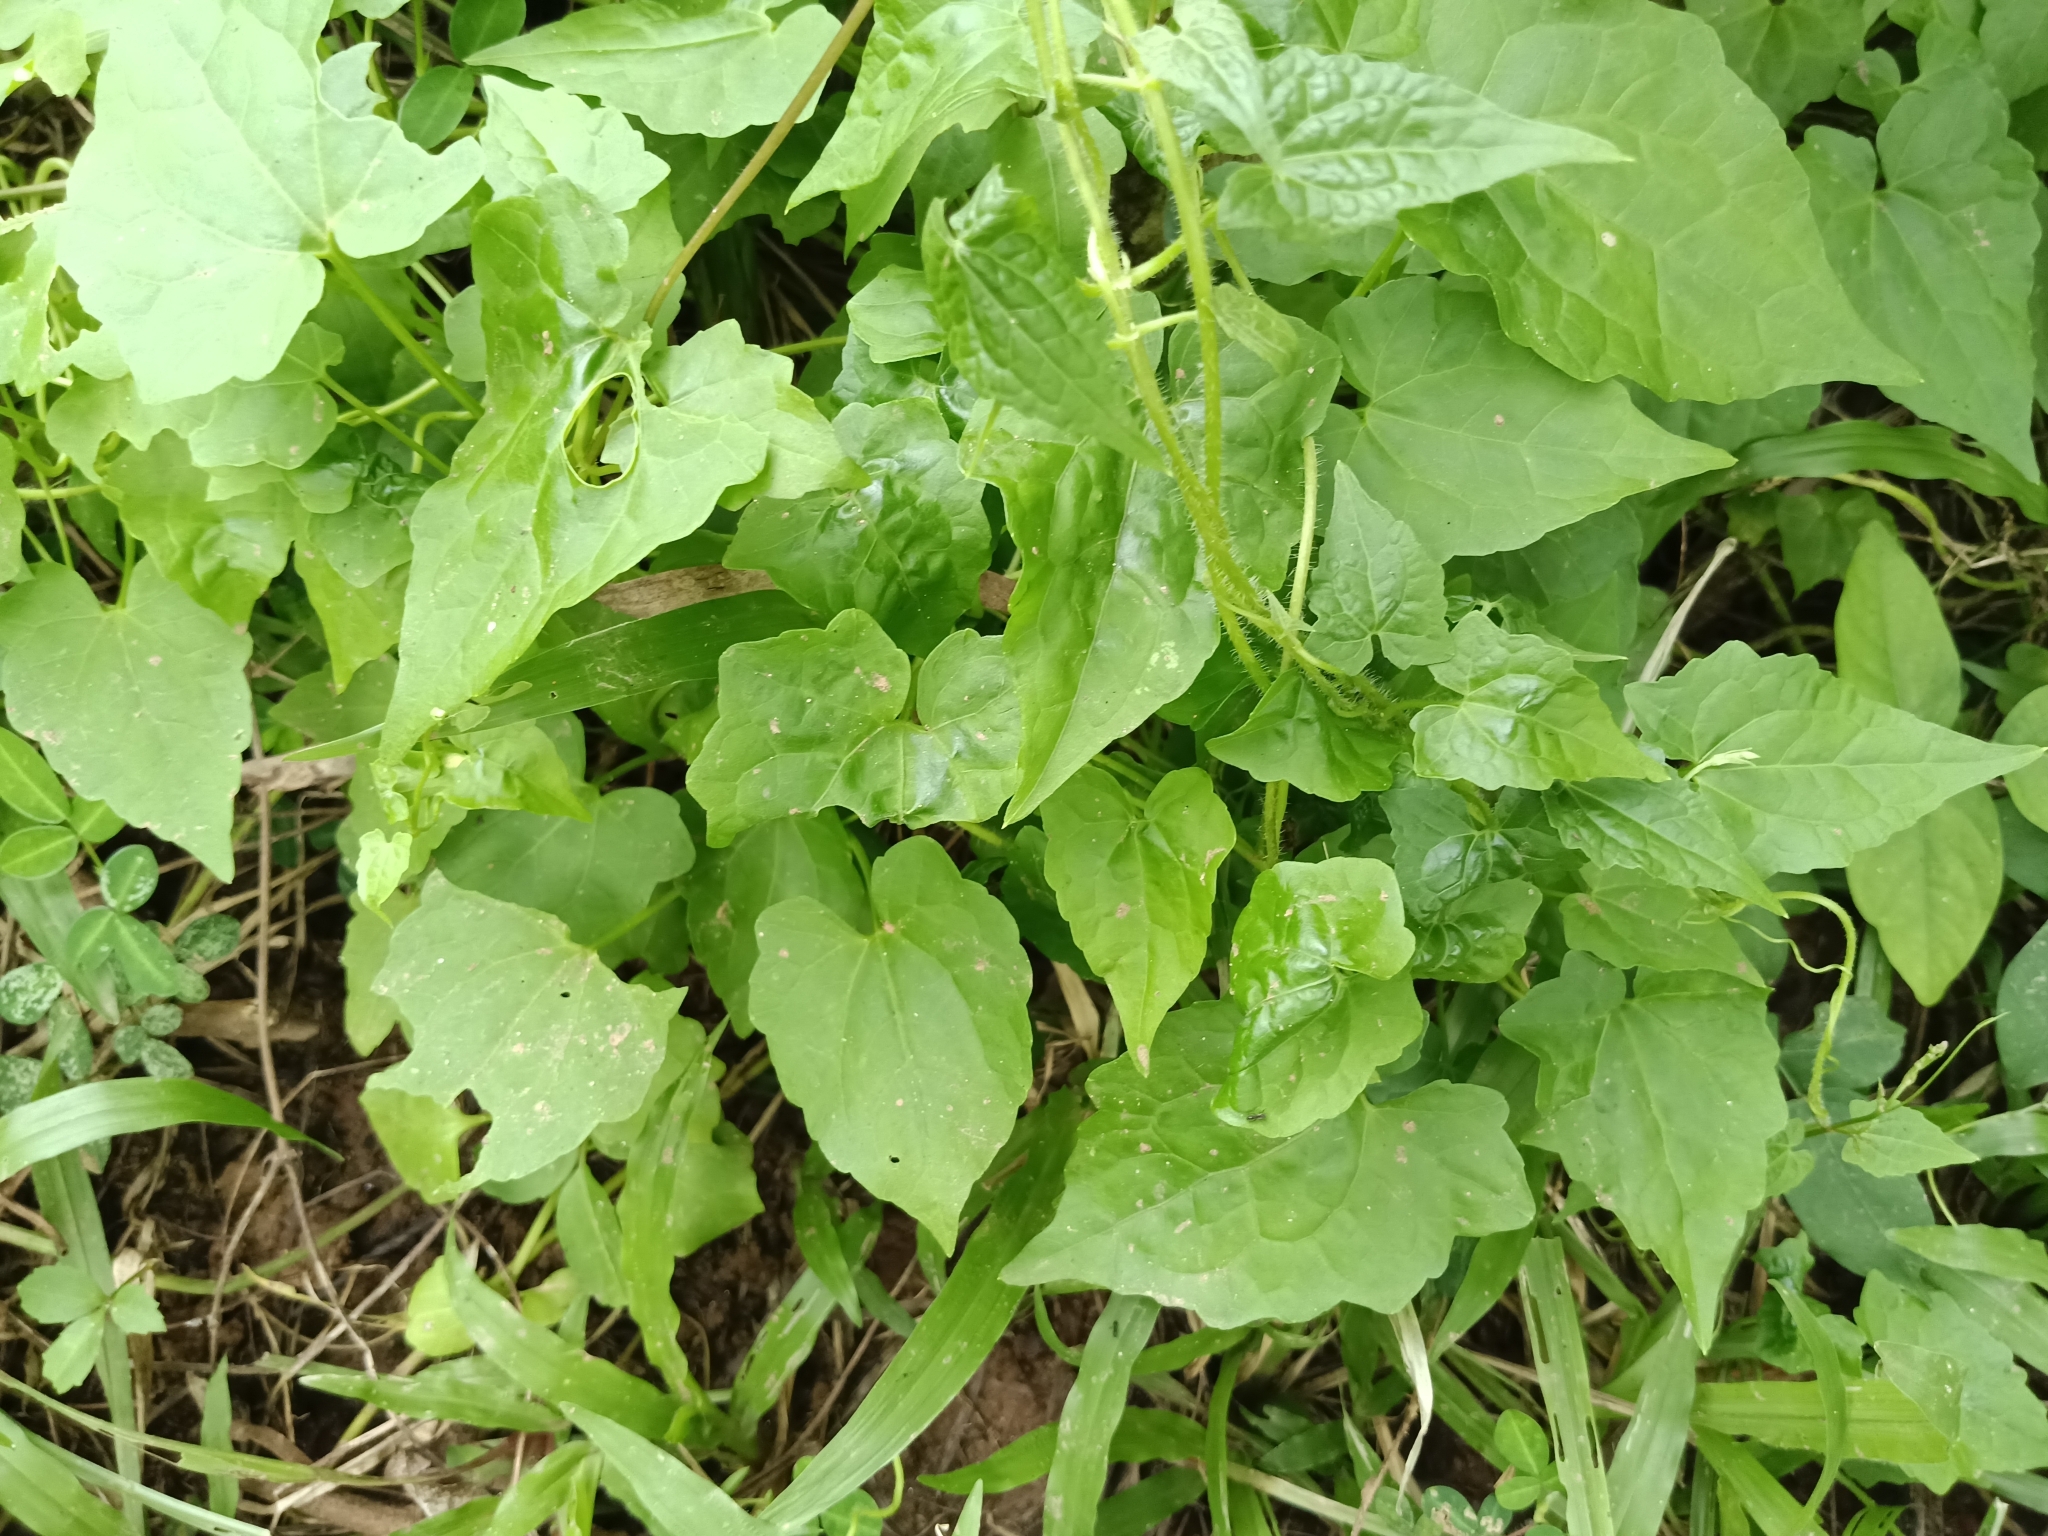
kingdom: Plantae
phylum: Tracheophyta
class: Magnoliopsida
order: Asterales
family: Asteraceae
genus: Mikania
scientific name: Mikania micrantha
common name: Mile-a-minute
